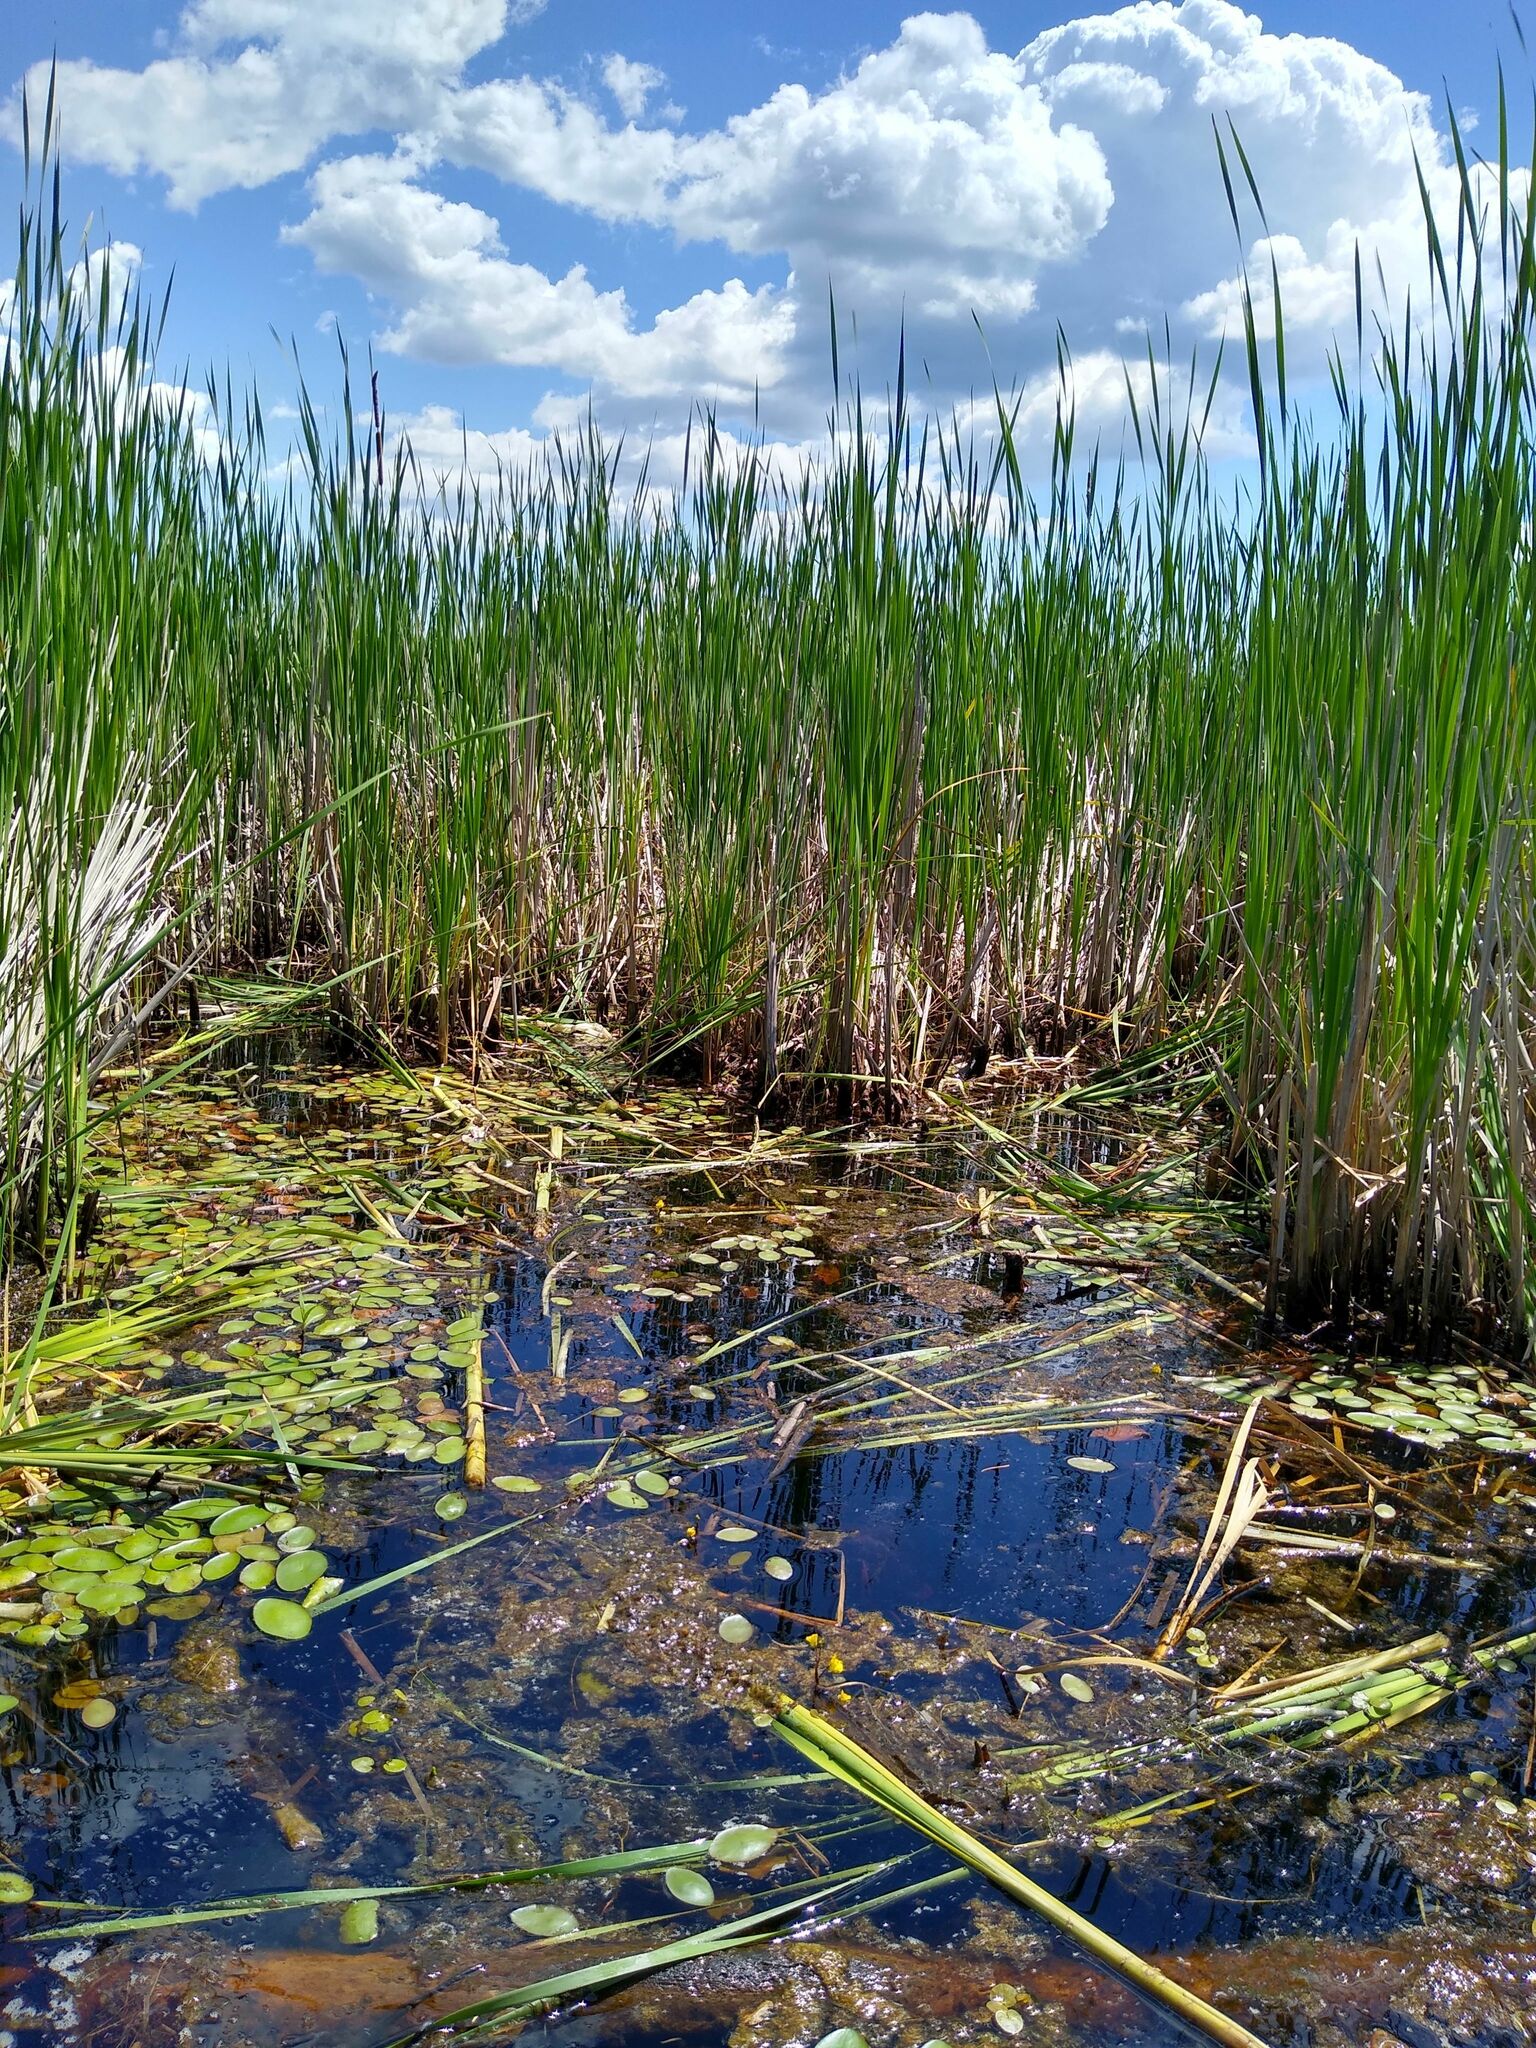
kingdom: Plantae
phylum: Tracheophyta
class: Magnoliopsida
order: Nymphaeales
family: Cabombaceae
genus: Brasenia
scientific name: Brasenia schreberi
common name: Water-shield
